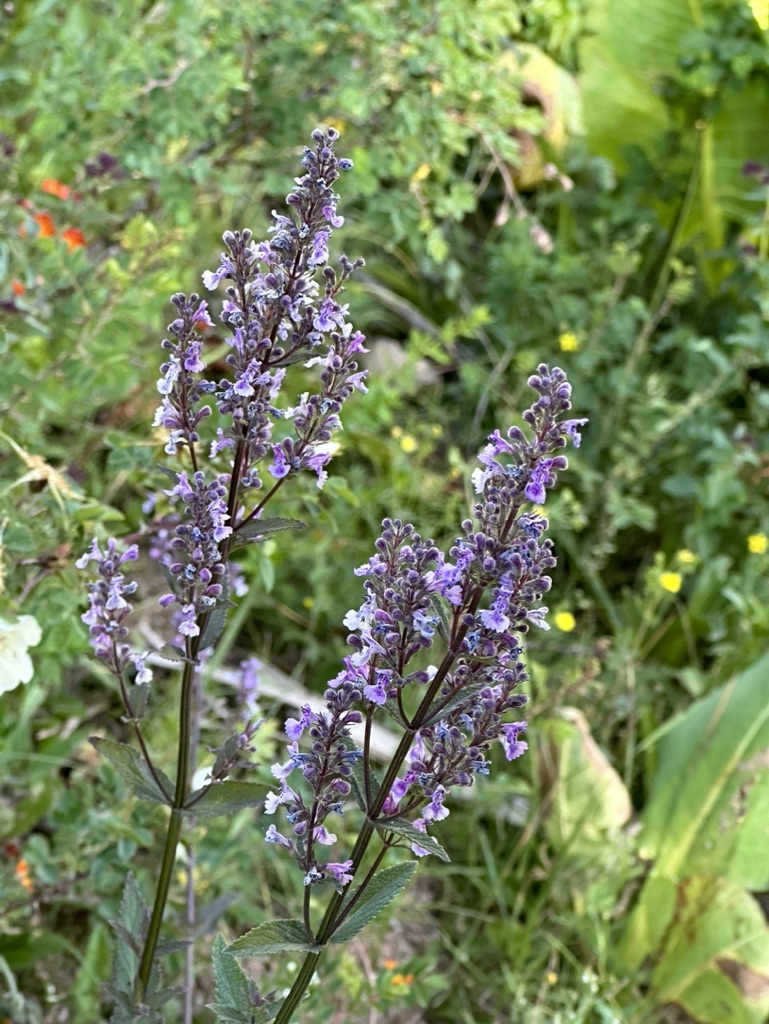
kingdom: Plantae
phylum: Tracheophyta
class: Magnoliopsida
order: Lamiales
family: Lamiaceae
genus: Nepeta
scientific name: Nepeta nuda
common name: Hairless catmint
